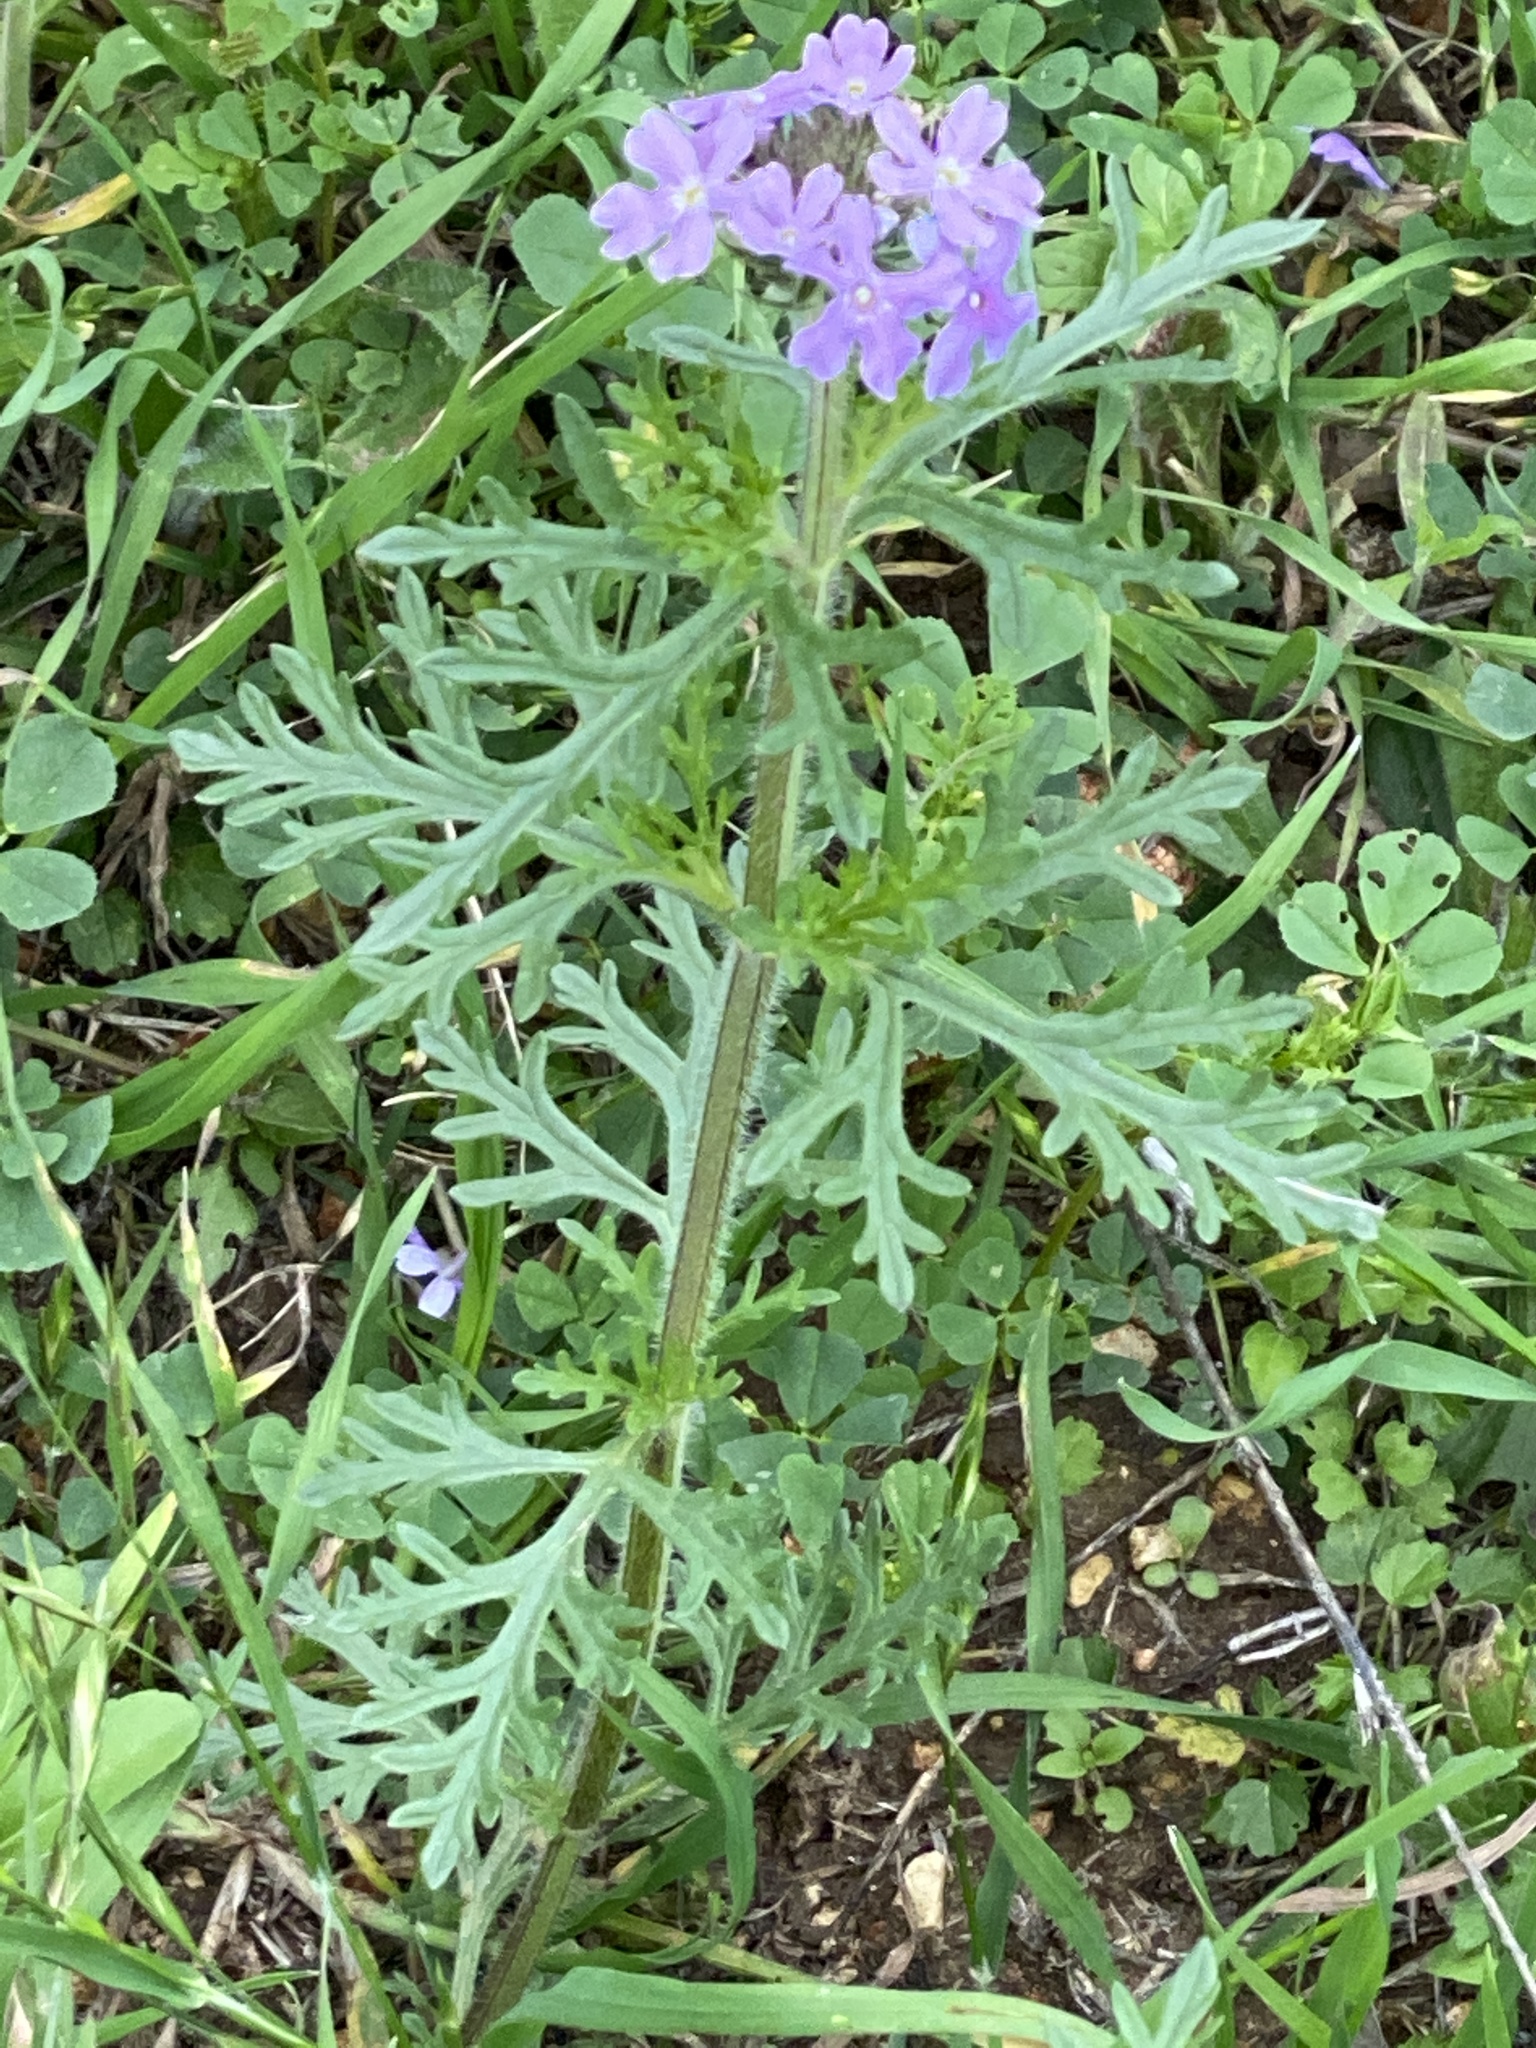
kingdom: Plantae
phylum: Tracheophyta
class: Magnoliopsida
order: Lamiales
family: Verbenaceae
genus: Verbena
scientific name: Verbena bipinnatifida
